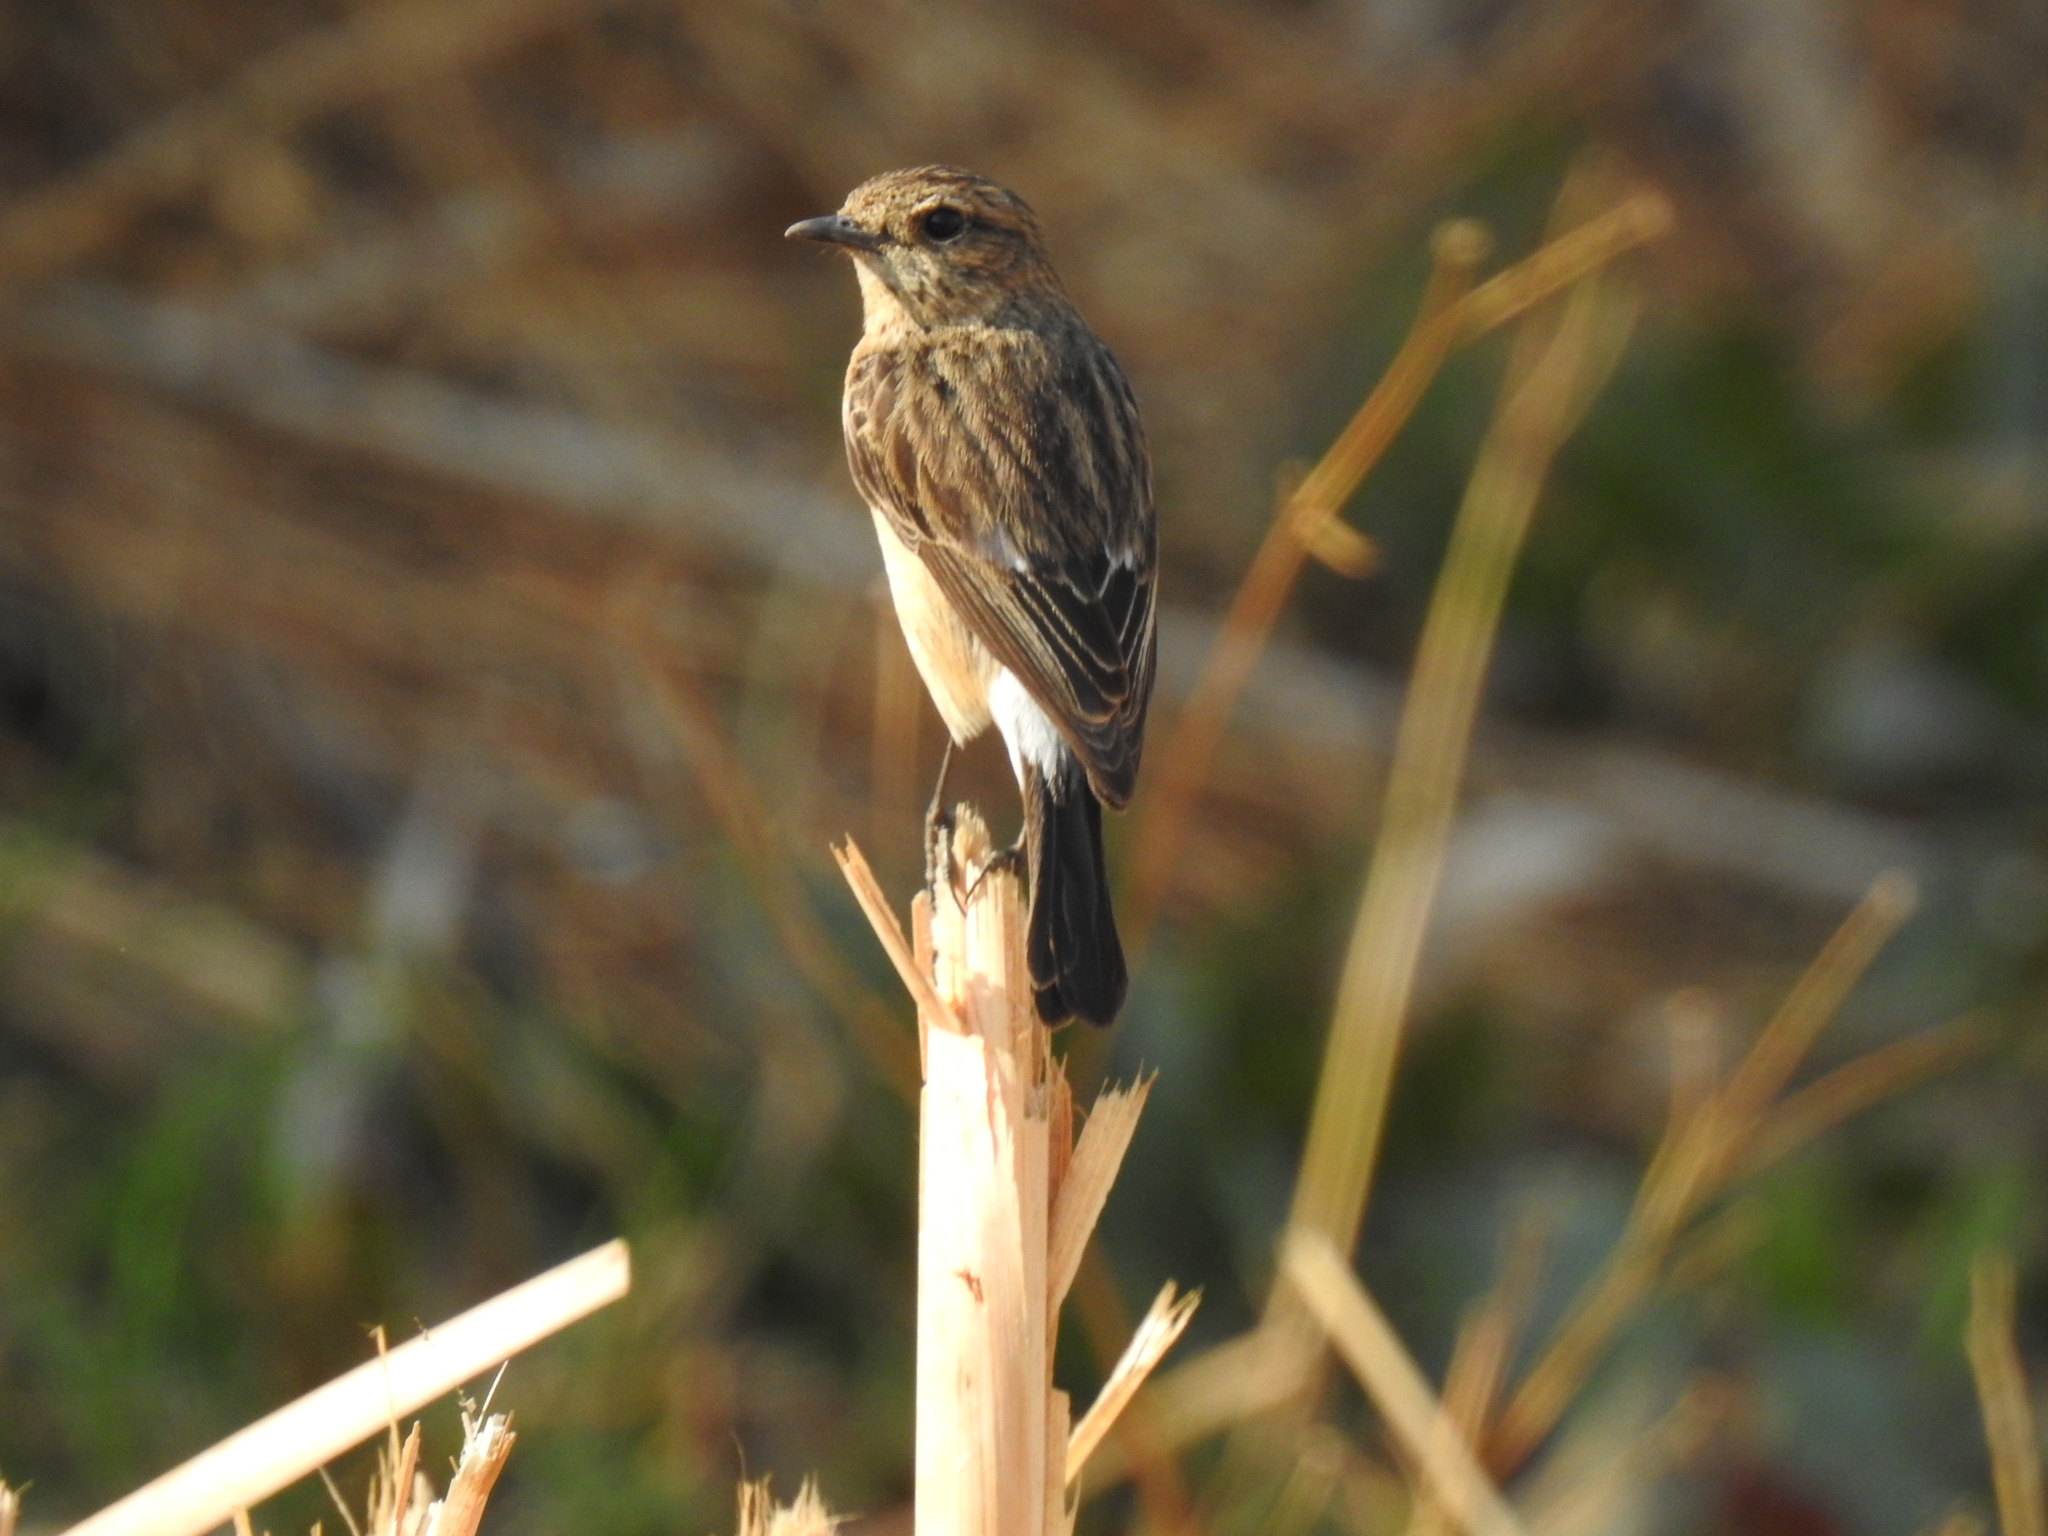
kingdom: Animalia
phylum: Chordata
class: Aves
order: Passeriformes
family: Muscicapidae
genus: Saxicola
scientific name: Saxicola torquatus
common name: African stonechat
